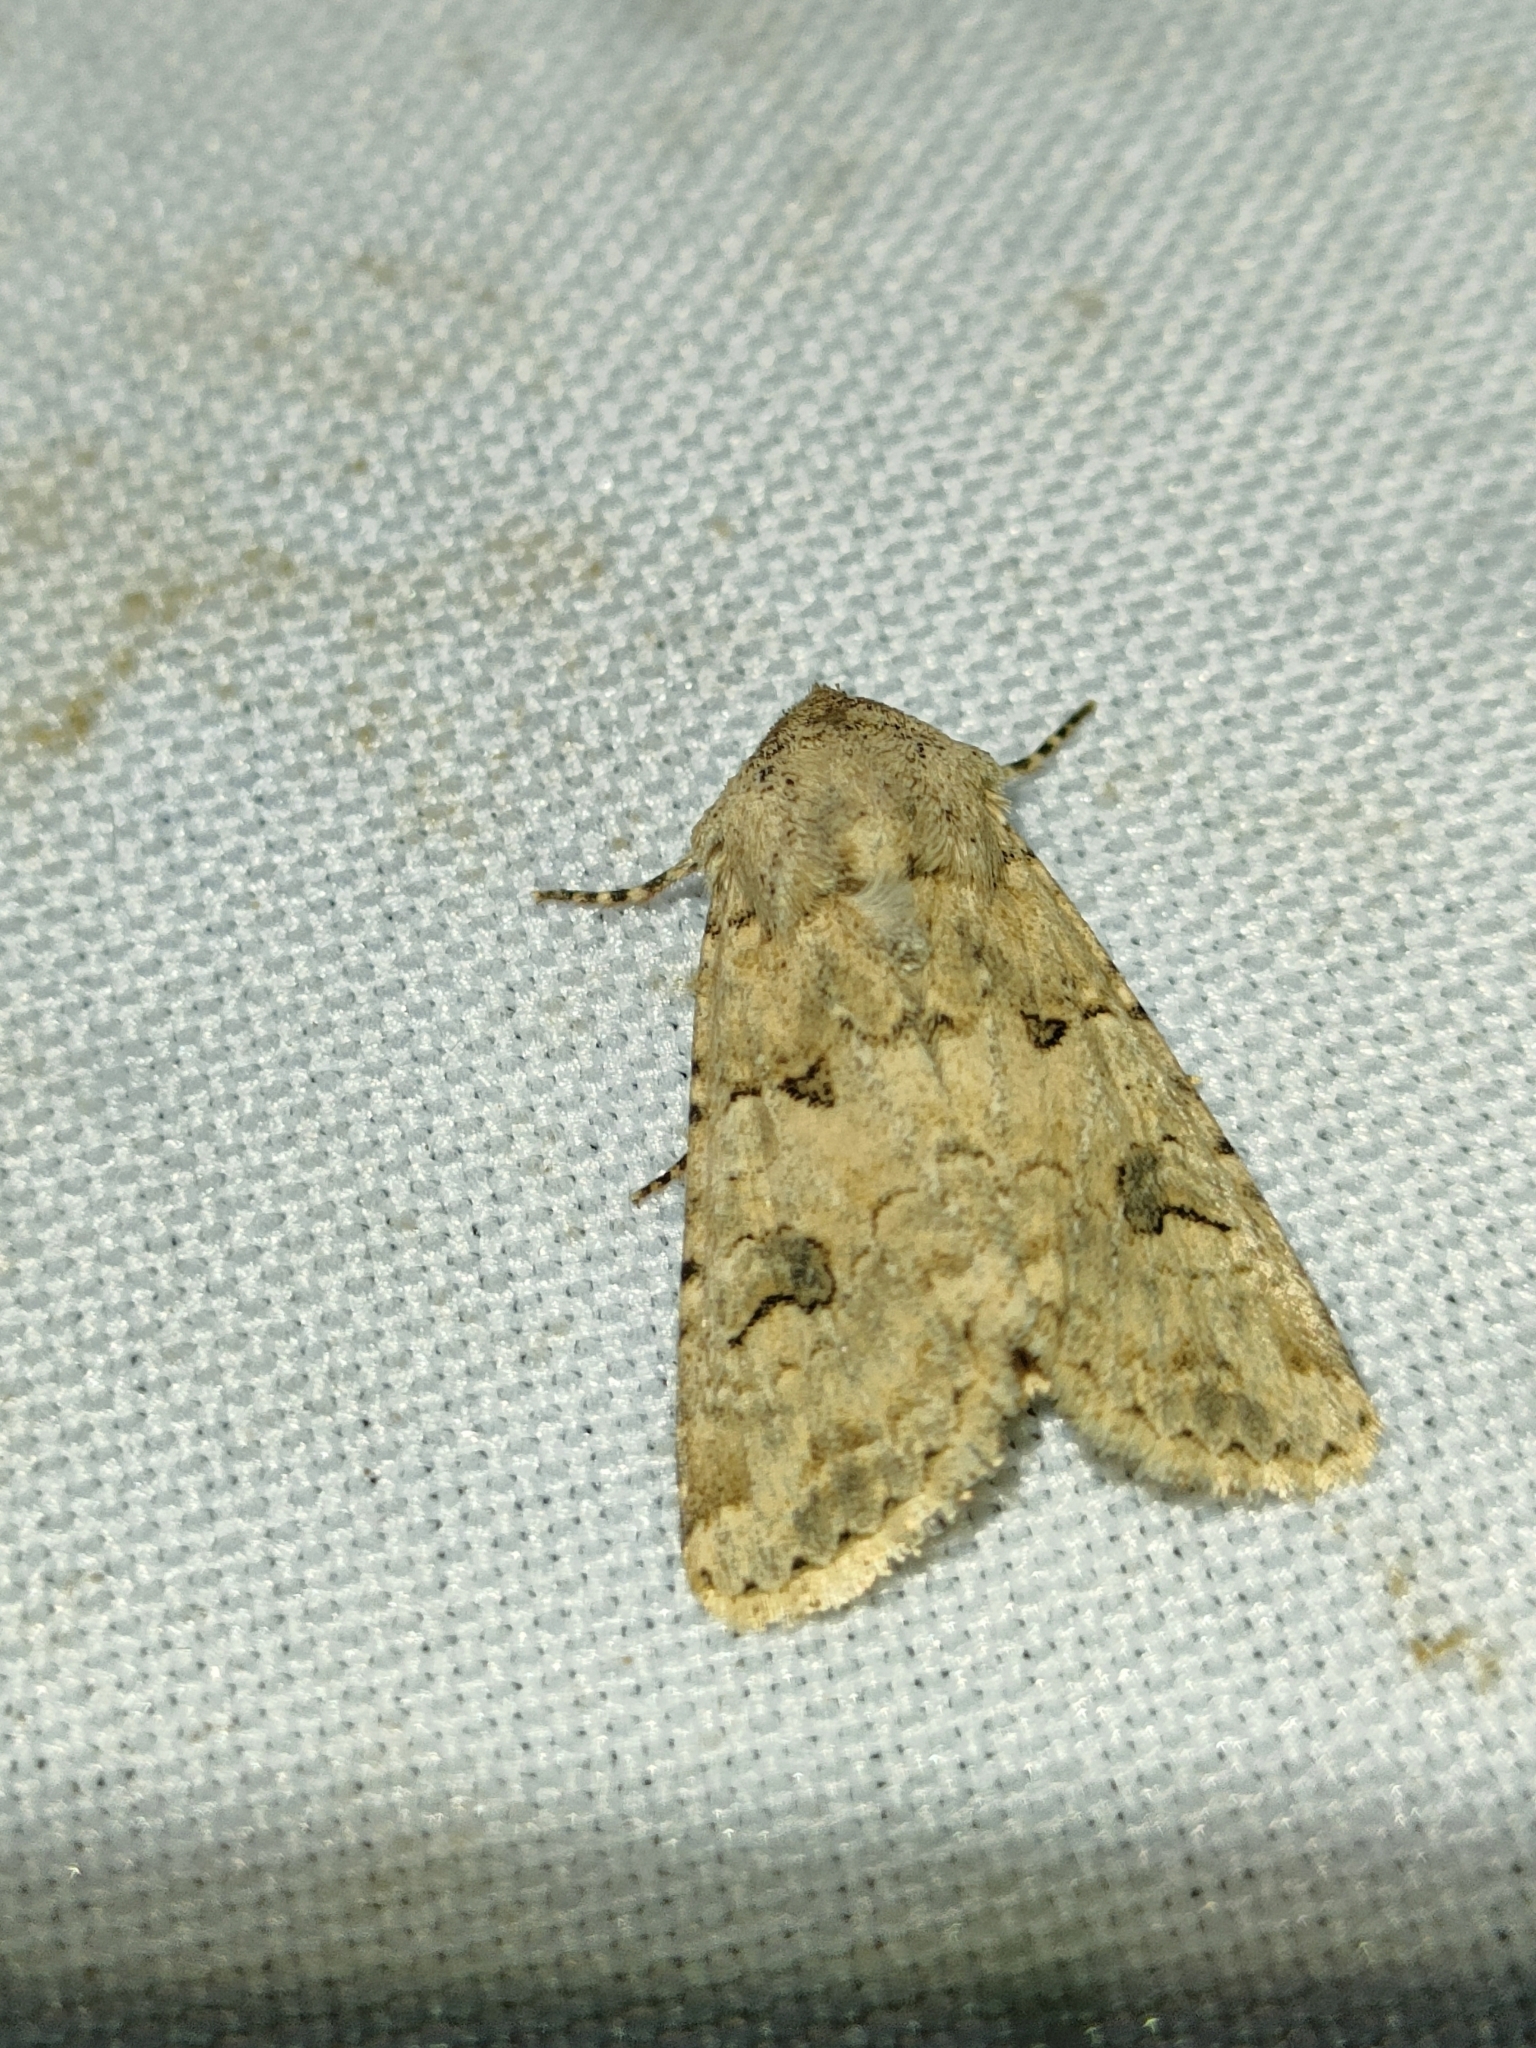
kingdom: Animalia
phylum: Arthropoda
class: Insecta
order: Lepidoptera
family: Noctuidae
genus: Anarta
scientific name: Anarta sodae
